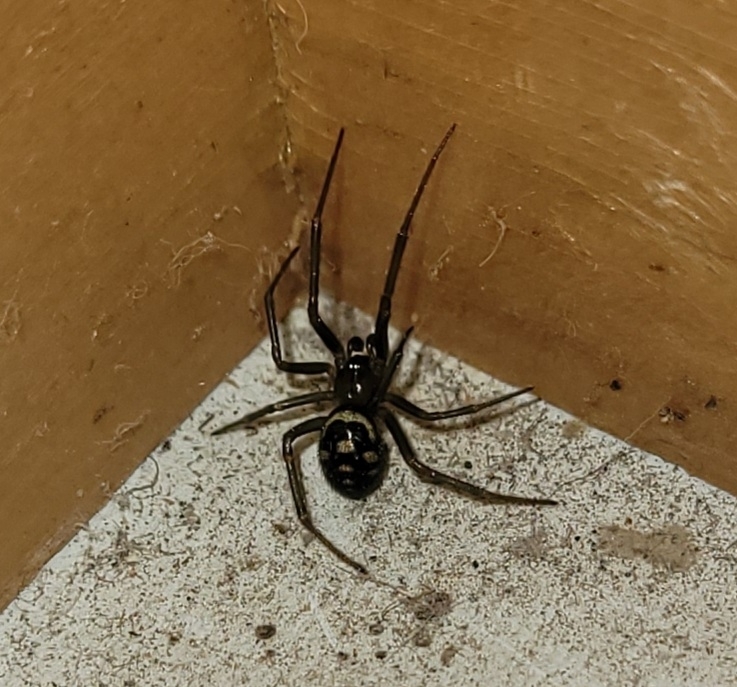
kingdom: Animalia
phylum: Arthropoda
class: Arachnida
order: Araneae
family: Theridiidae
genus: Steatoda
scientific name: Steatoda grossa
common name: False black widow
